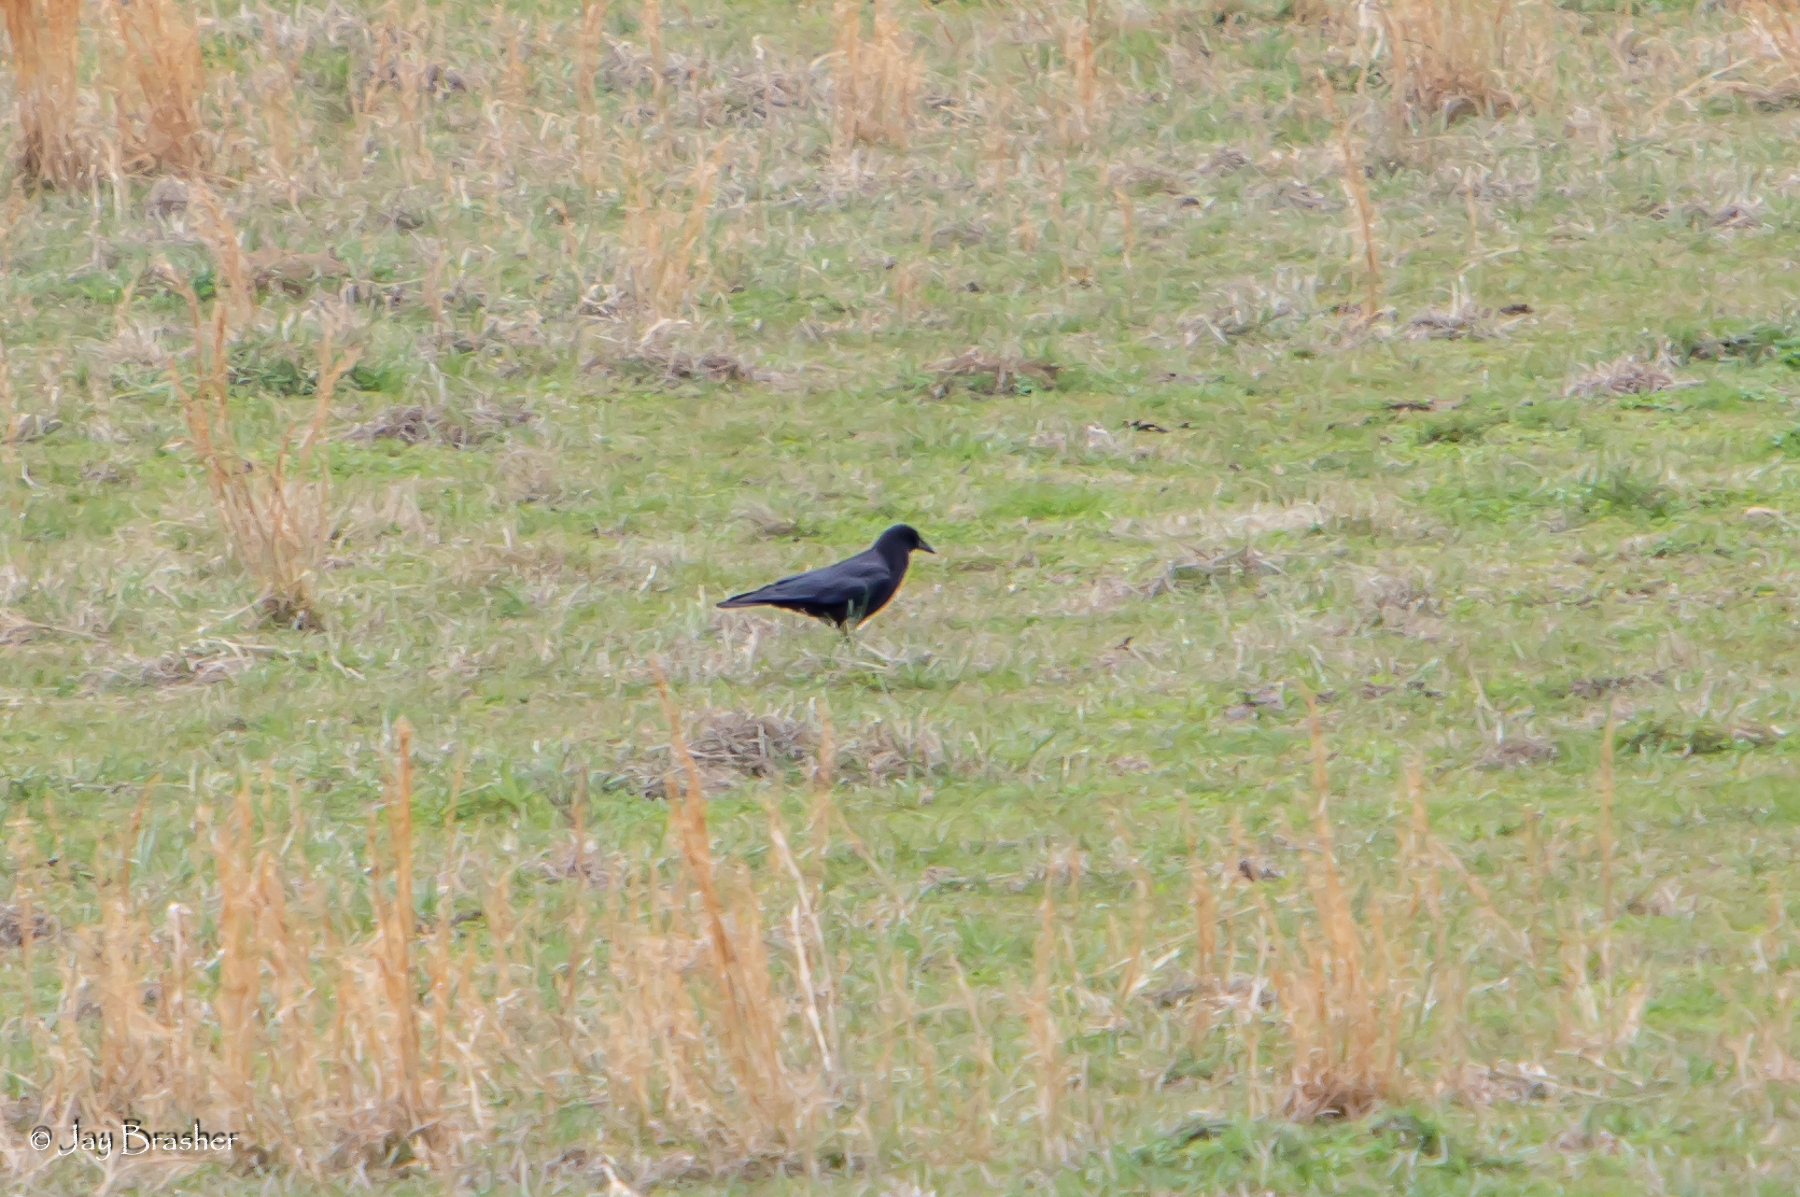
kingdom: Animalia
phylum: Chordata
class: Aves
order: Passeriformes
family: Corvidae
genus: Corvus
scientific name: Corvus brachyrhynchos
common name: American crow
